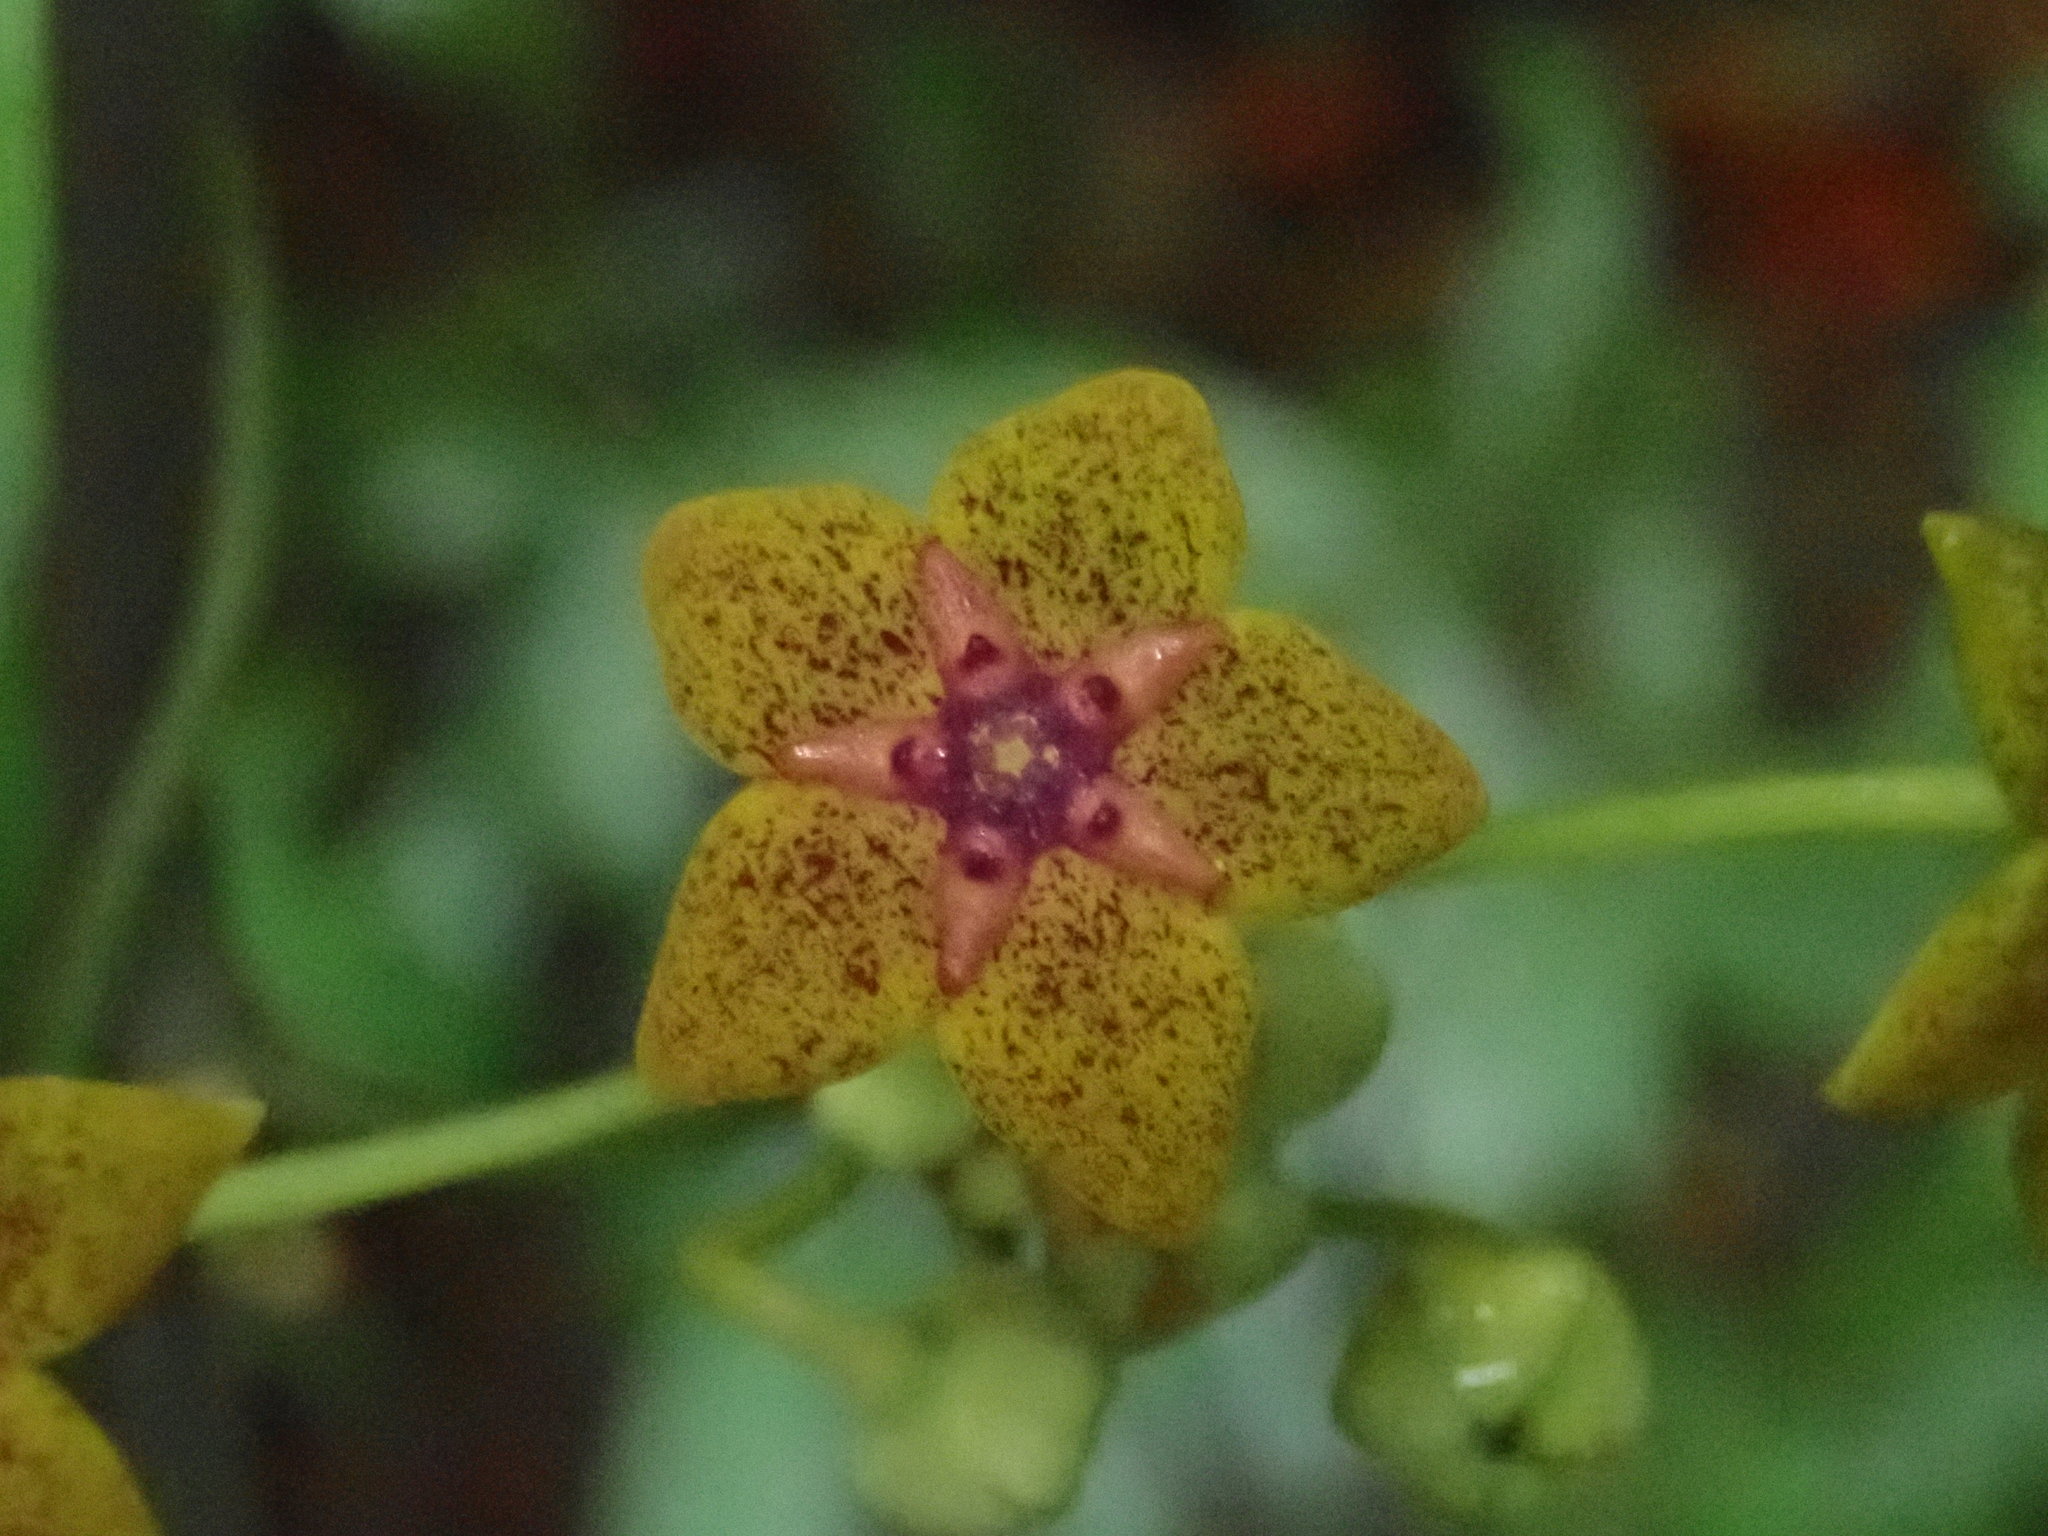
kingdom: Plantae
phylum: Tracheophyta
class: Magnoliopsida
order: Gentianales
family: Apocynaceae
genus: Heterostemma
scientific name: Heterostemma brownii
